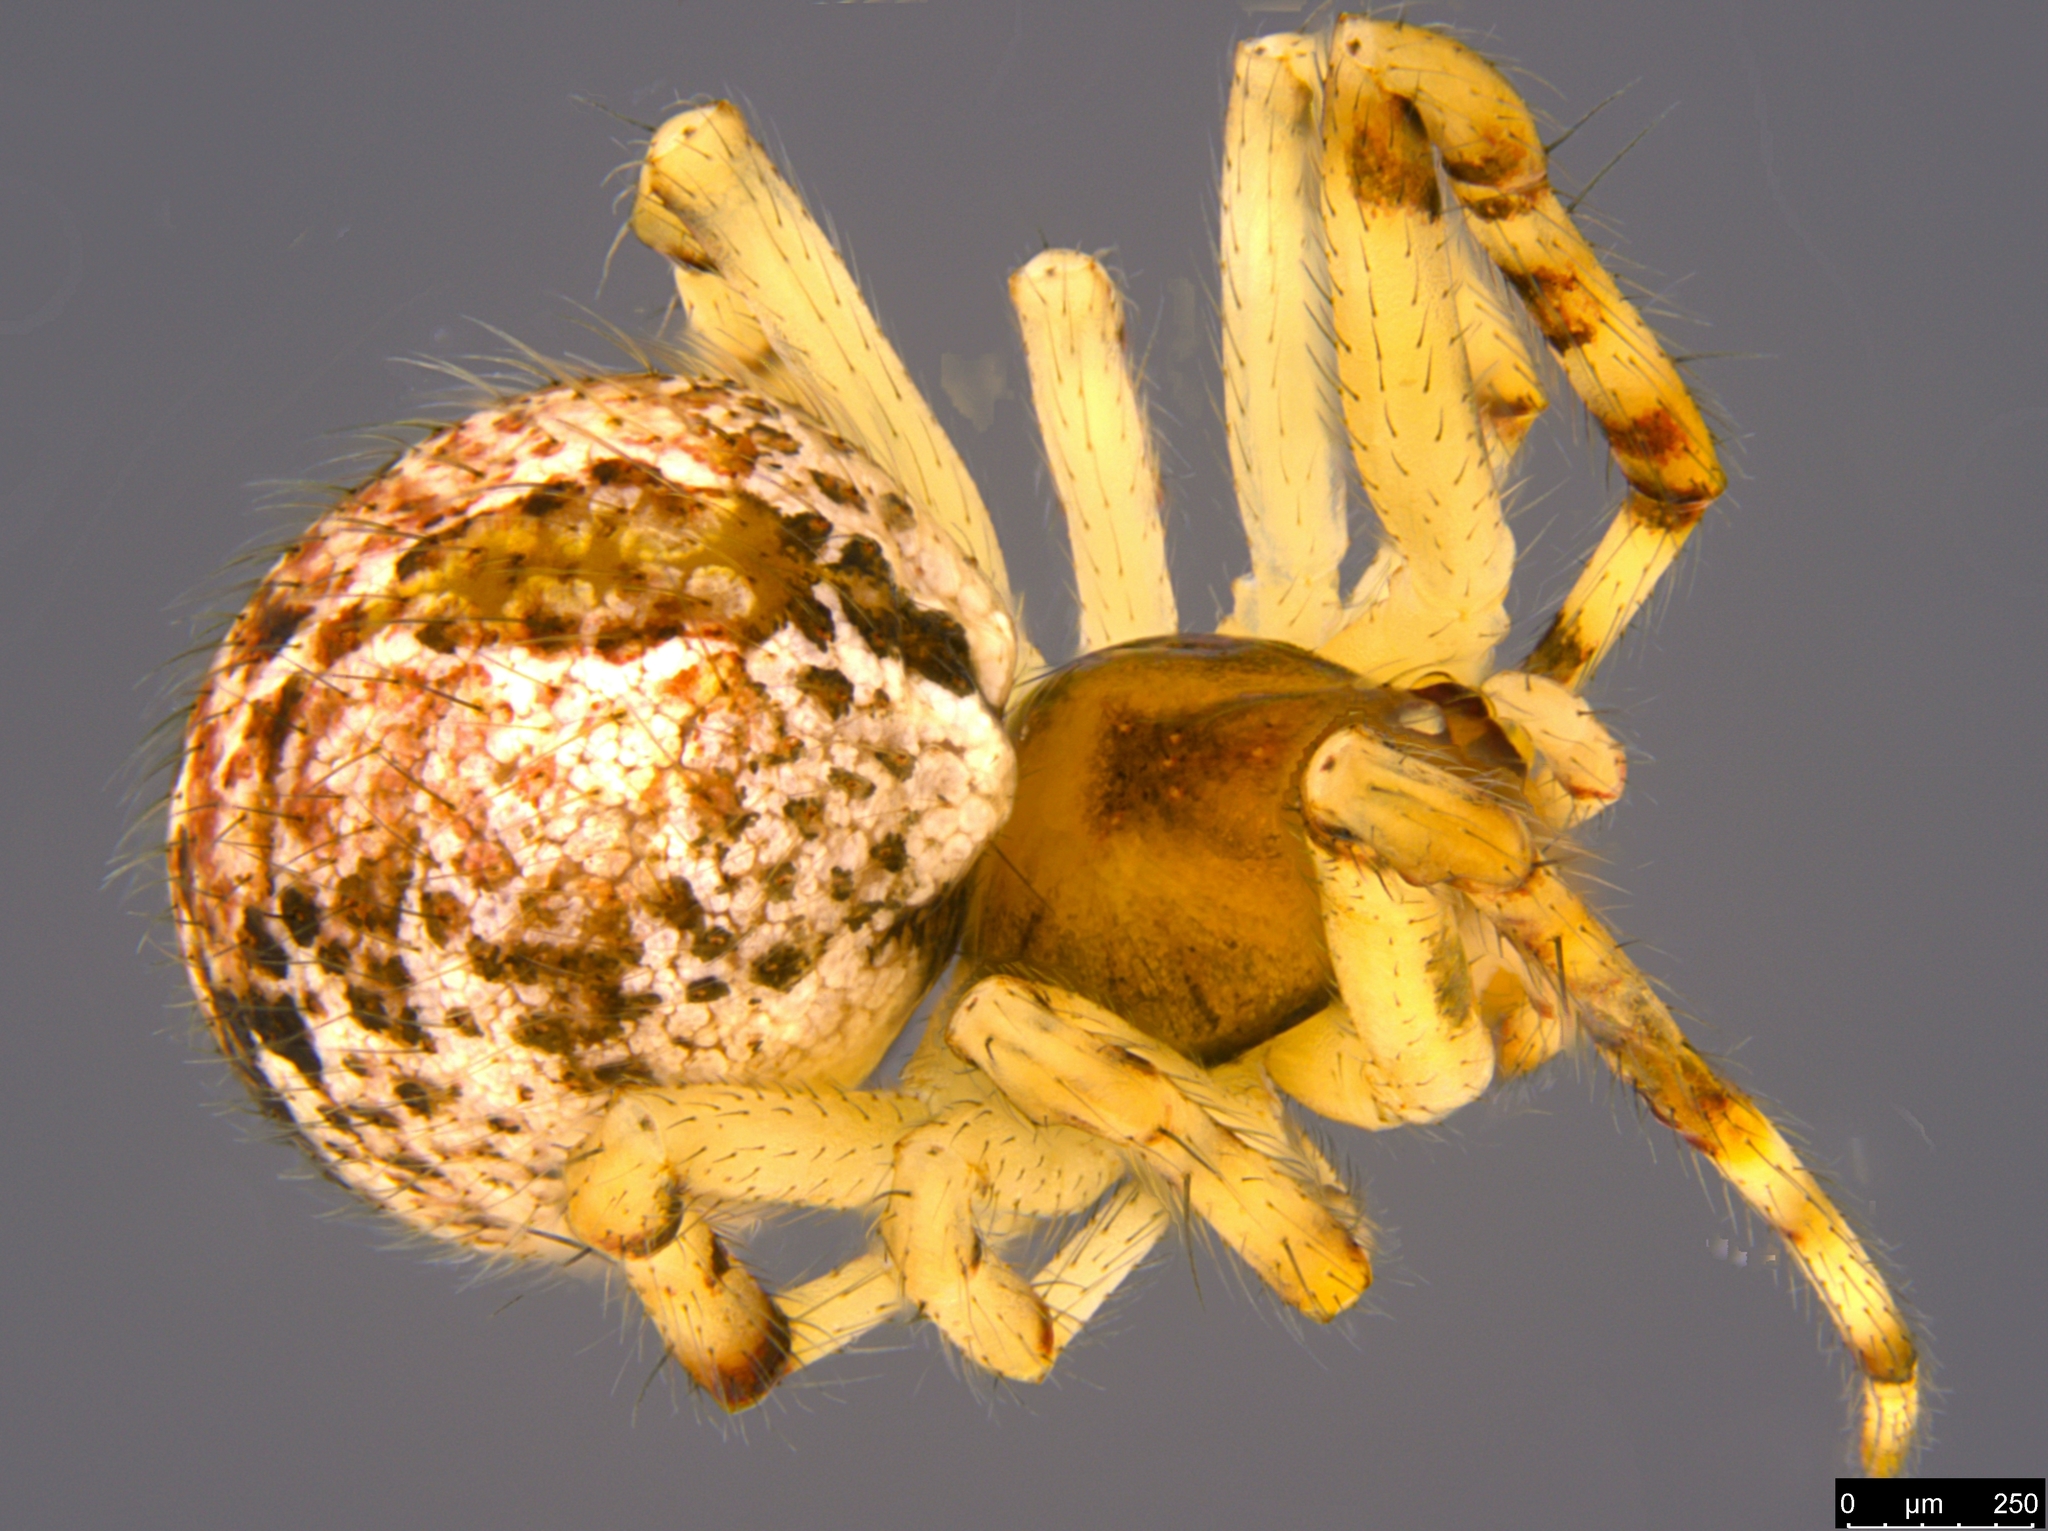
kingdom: Animalia
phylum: Arthropoda
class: Arachnida
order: Araneae
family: Theridiidae
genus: Cryptachaea
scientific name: Cryptachaea veruculata
